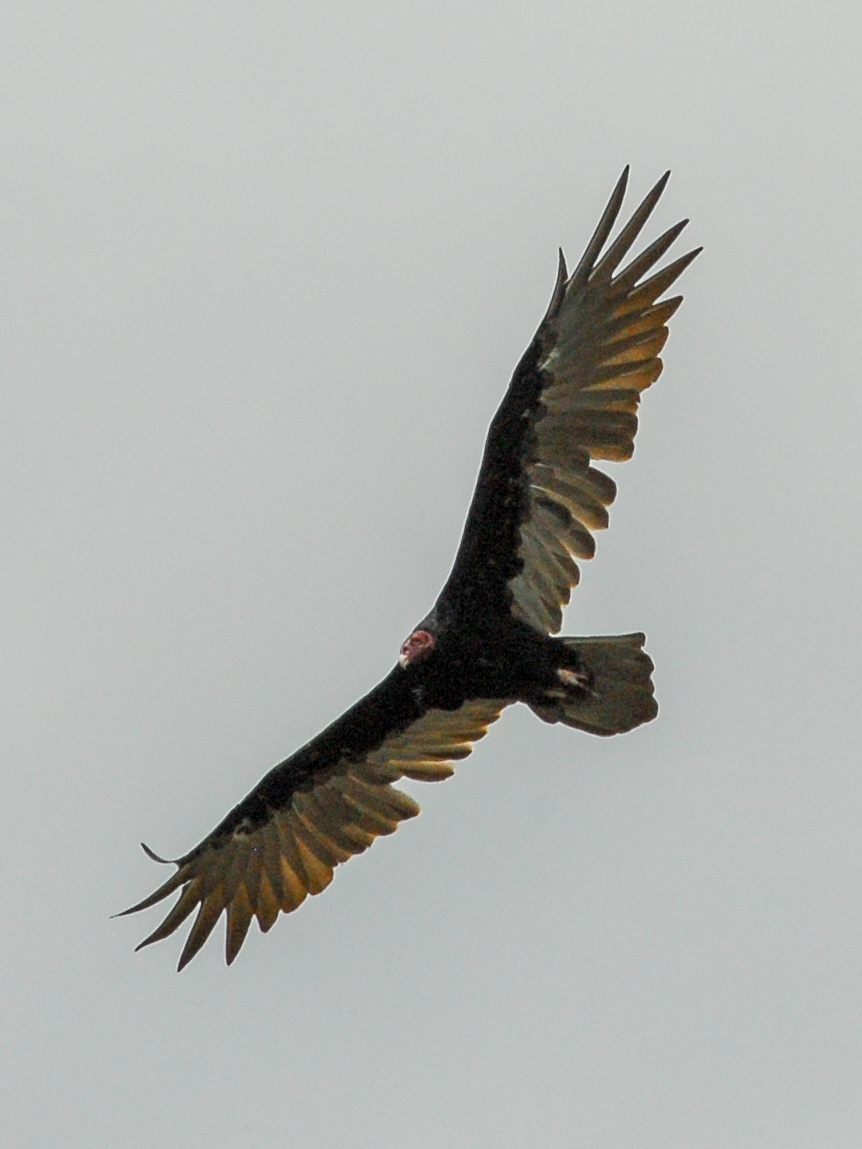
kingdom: Animalia
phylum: Chordata
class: Aves
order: Accipitriformes
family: Cathartidae
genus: Cathartes
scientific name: Cathartes aura
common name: Turkey vulture
